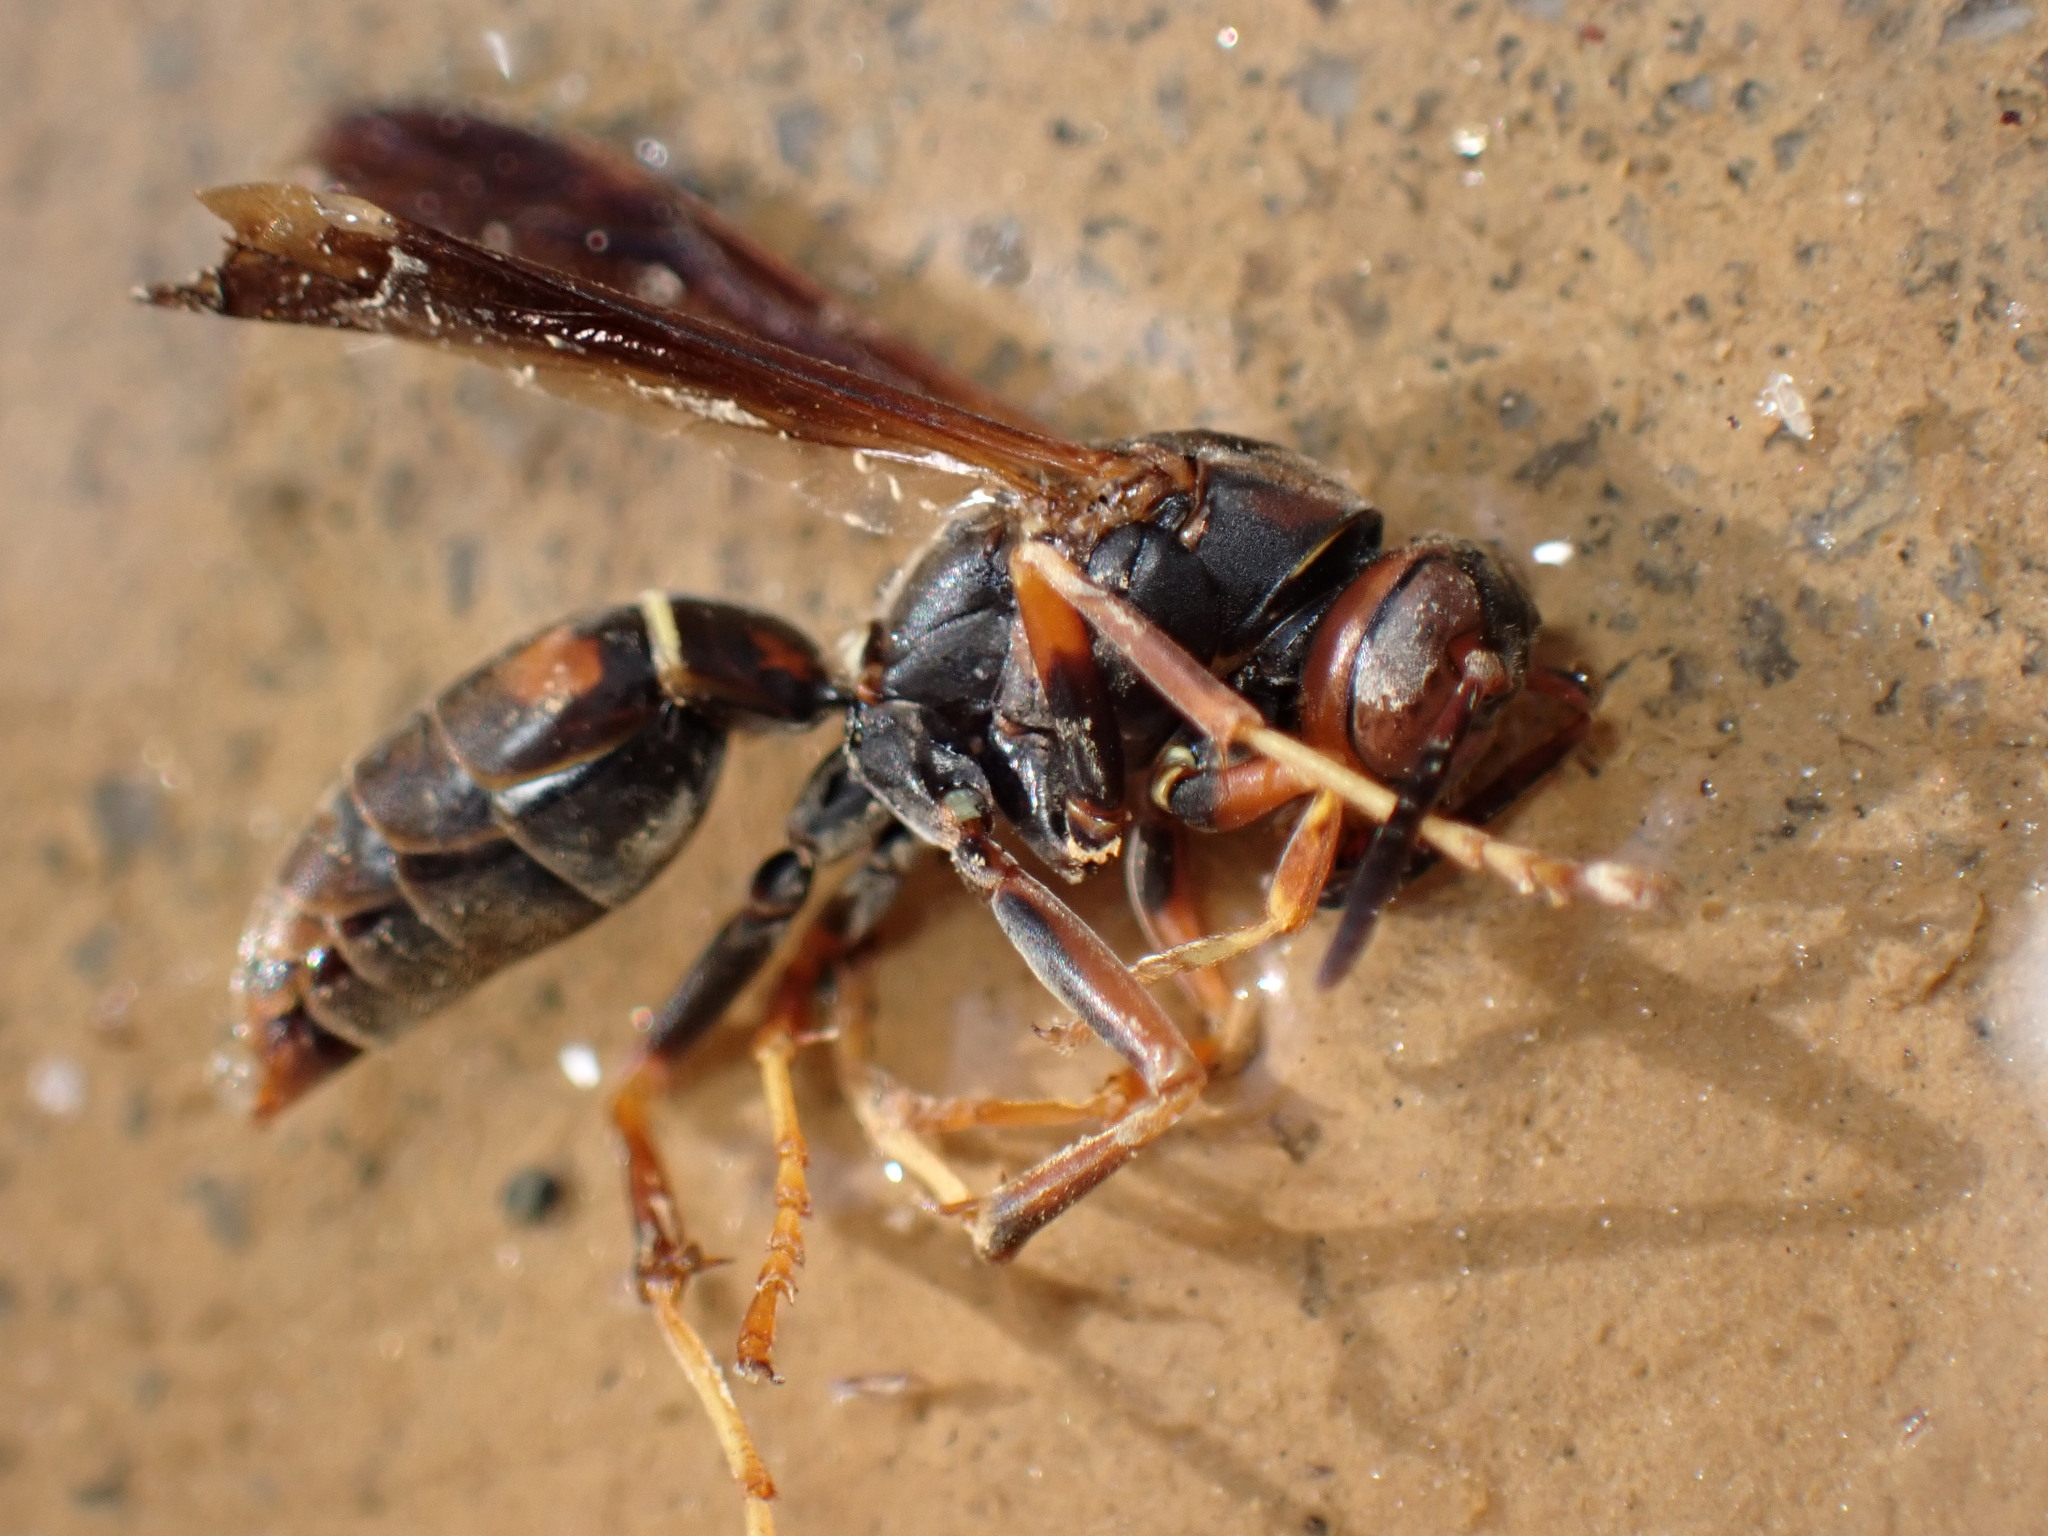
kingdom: Animalia
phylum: Arthropoda
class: Insecta
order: Hymenoptera
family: Eumenidae
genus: Polistes
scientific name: Polistes fuscatus
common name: Dark paper wasp
